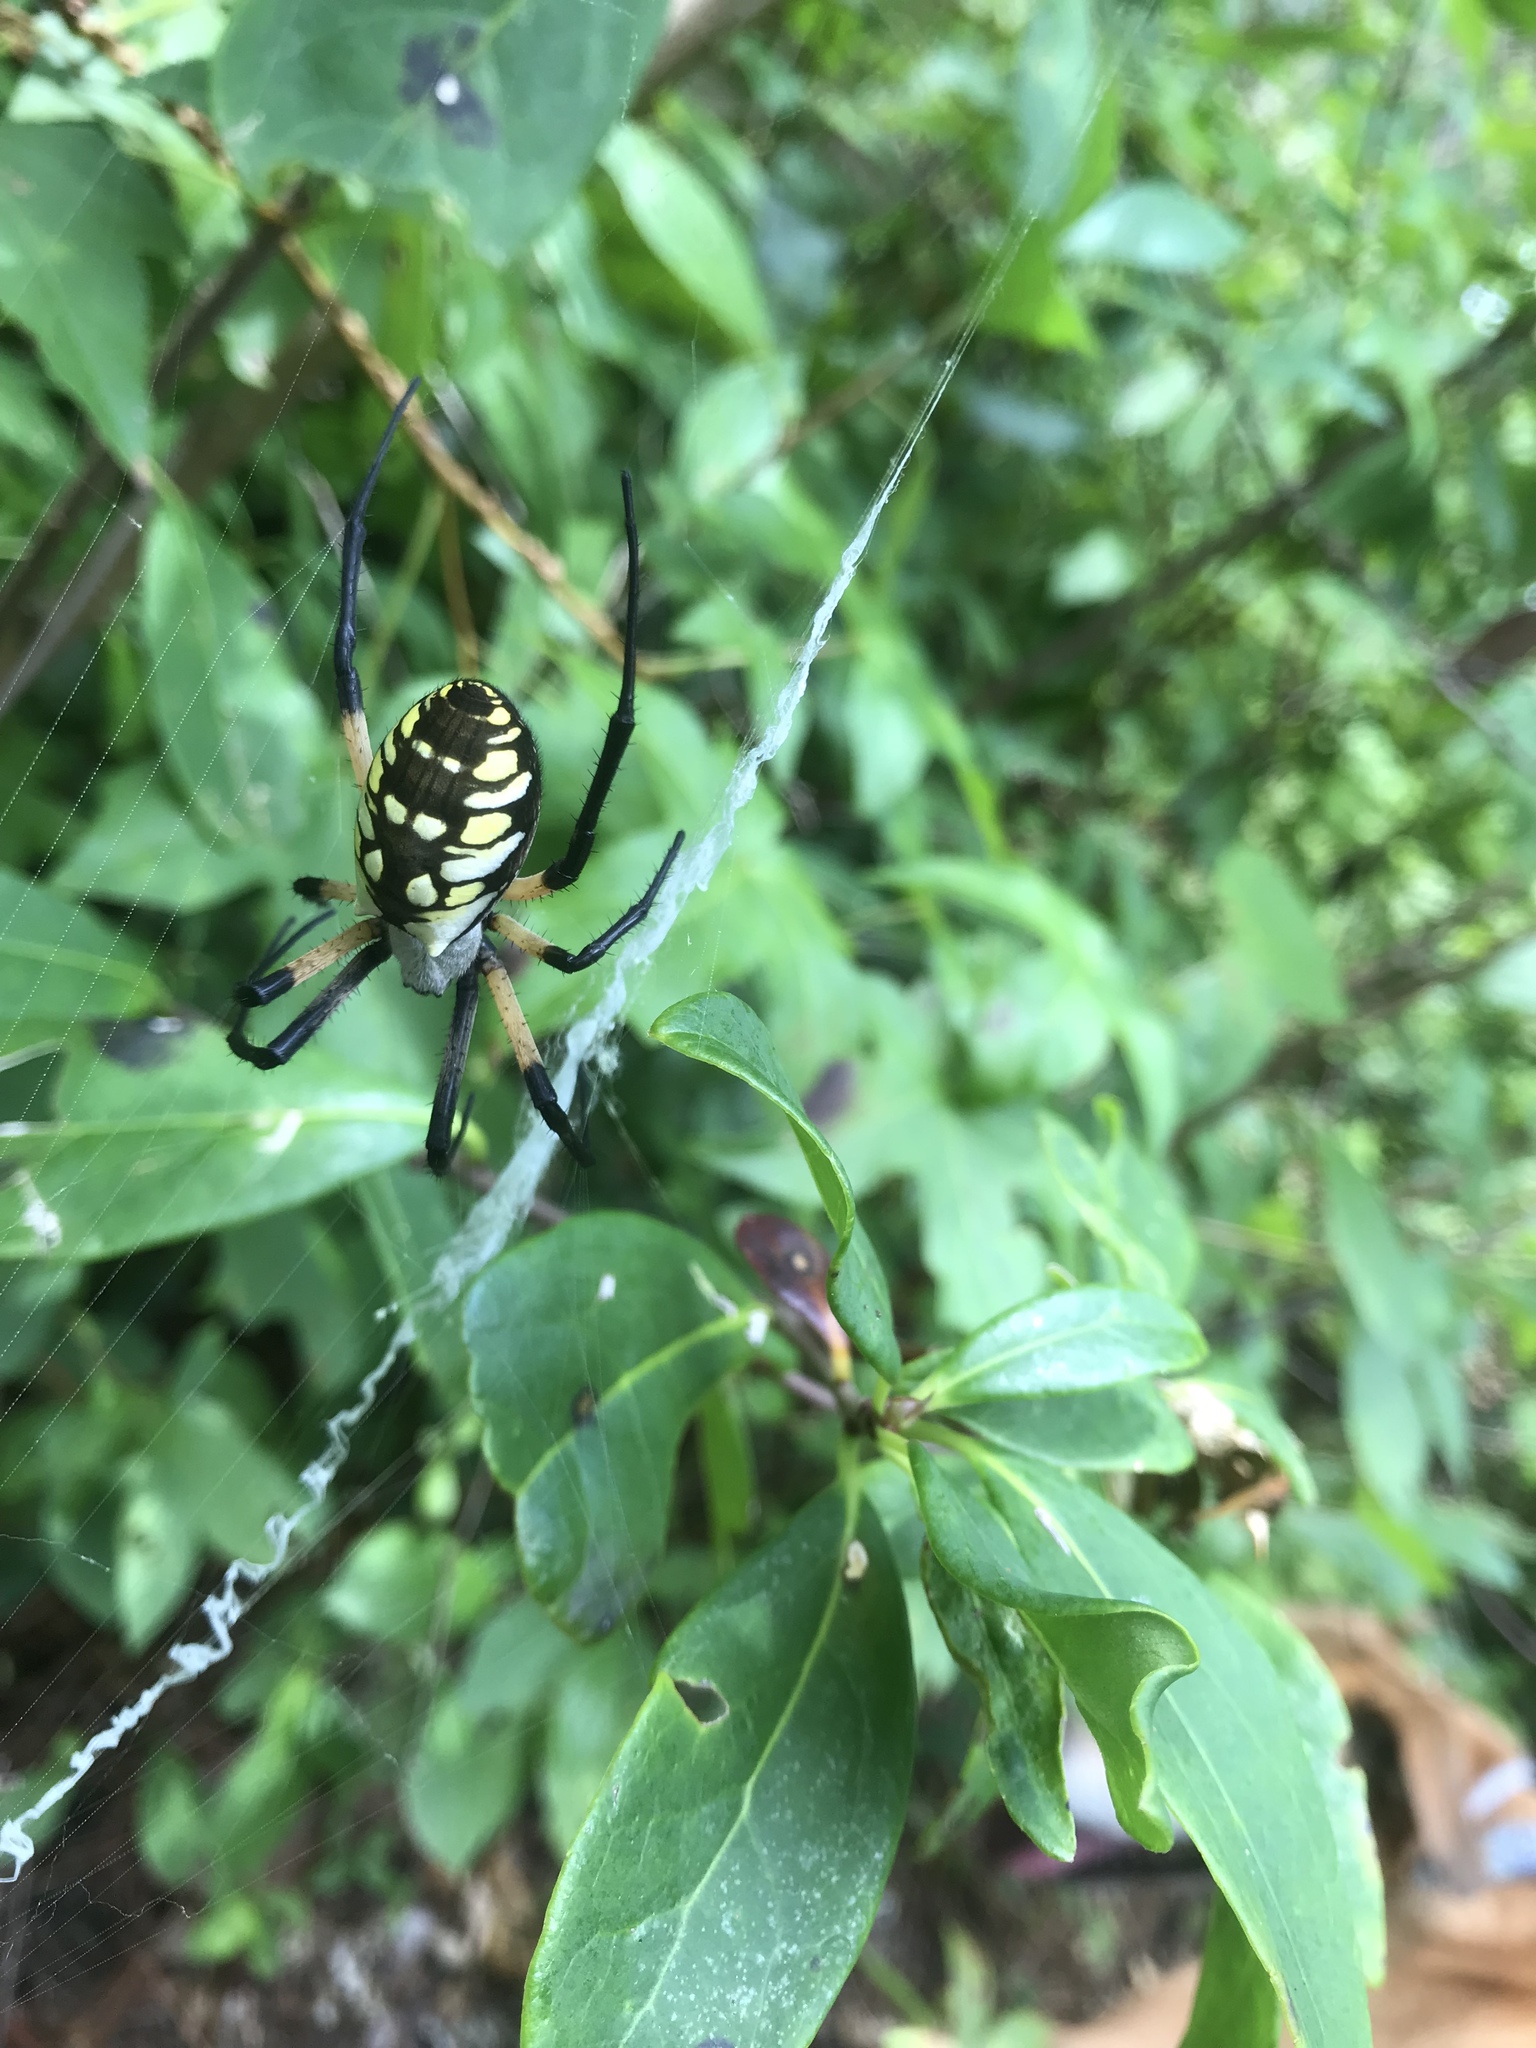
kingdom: Animalia
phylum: Arthropoda
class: Arachnida
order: Araneae
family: Araneidae
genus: Argiope
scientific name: Argiope aurantia
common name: Orb weavers
